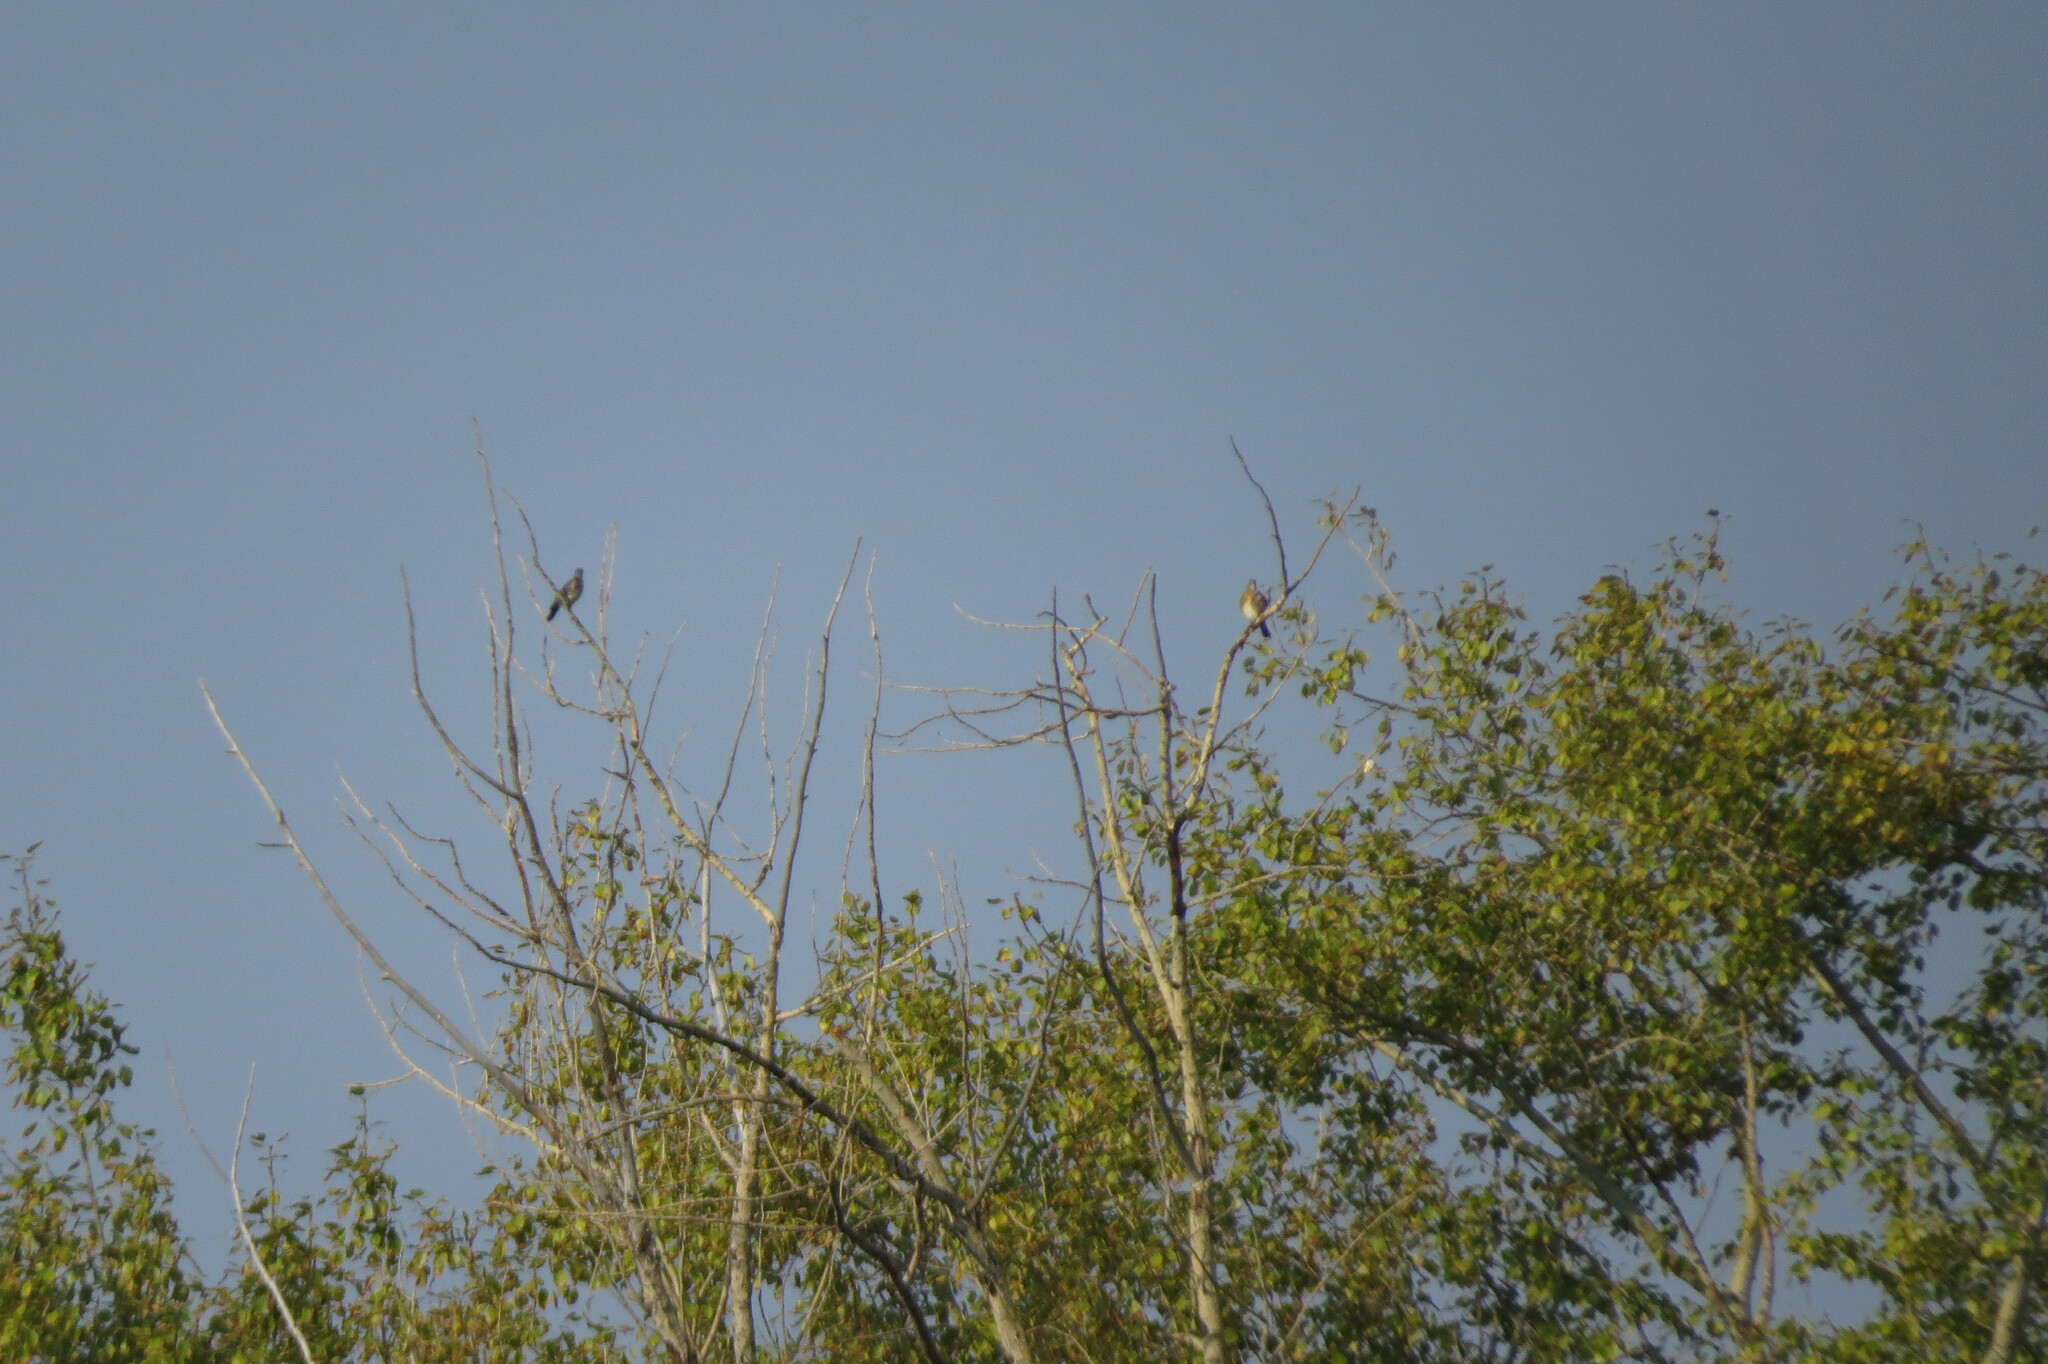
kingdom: Animalia
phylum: Chordata
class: Aves
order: Passeriformes
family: Turdidae
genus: Turdus
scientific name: Turdus pilaris
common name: Fieldfare
